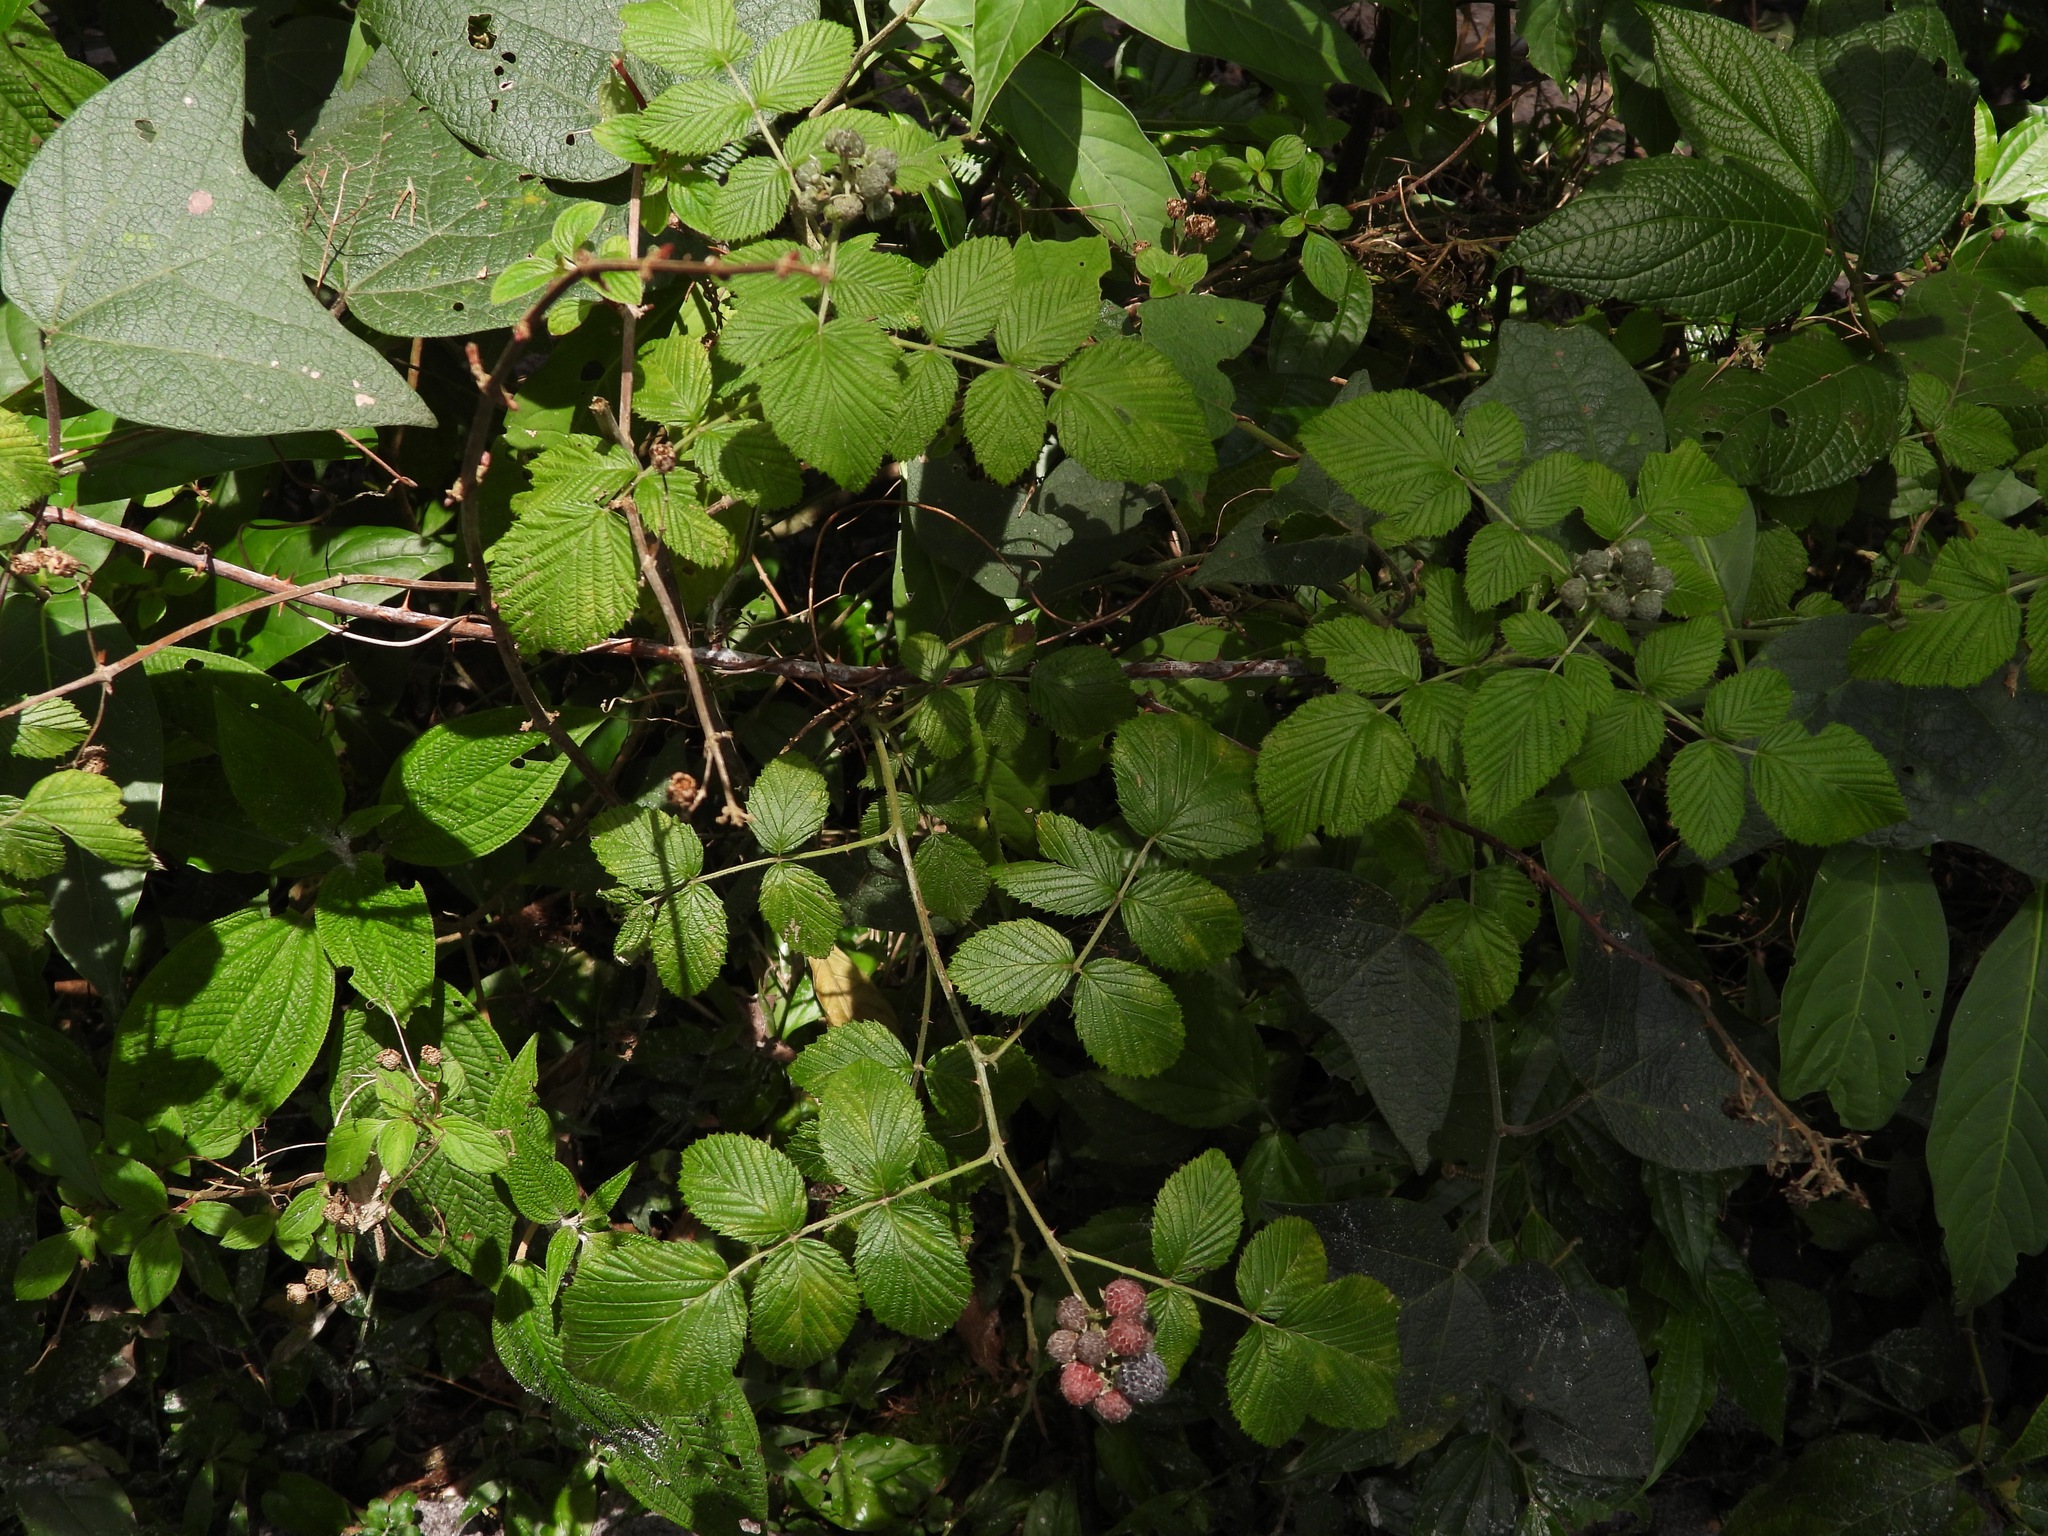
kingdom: Plantae
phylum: Tracheophyta
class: Magnoliopsida
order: Rosales
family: Rosaceae
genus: Rubus
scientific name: Rubus niveus
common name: Snowpeaks raspberry
